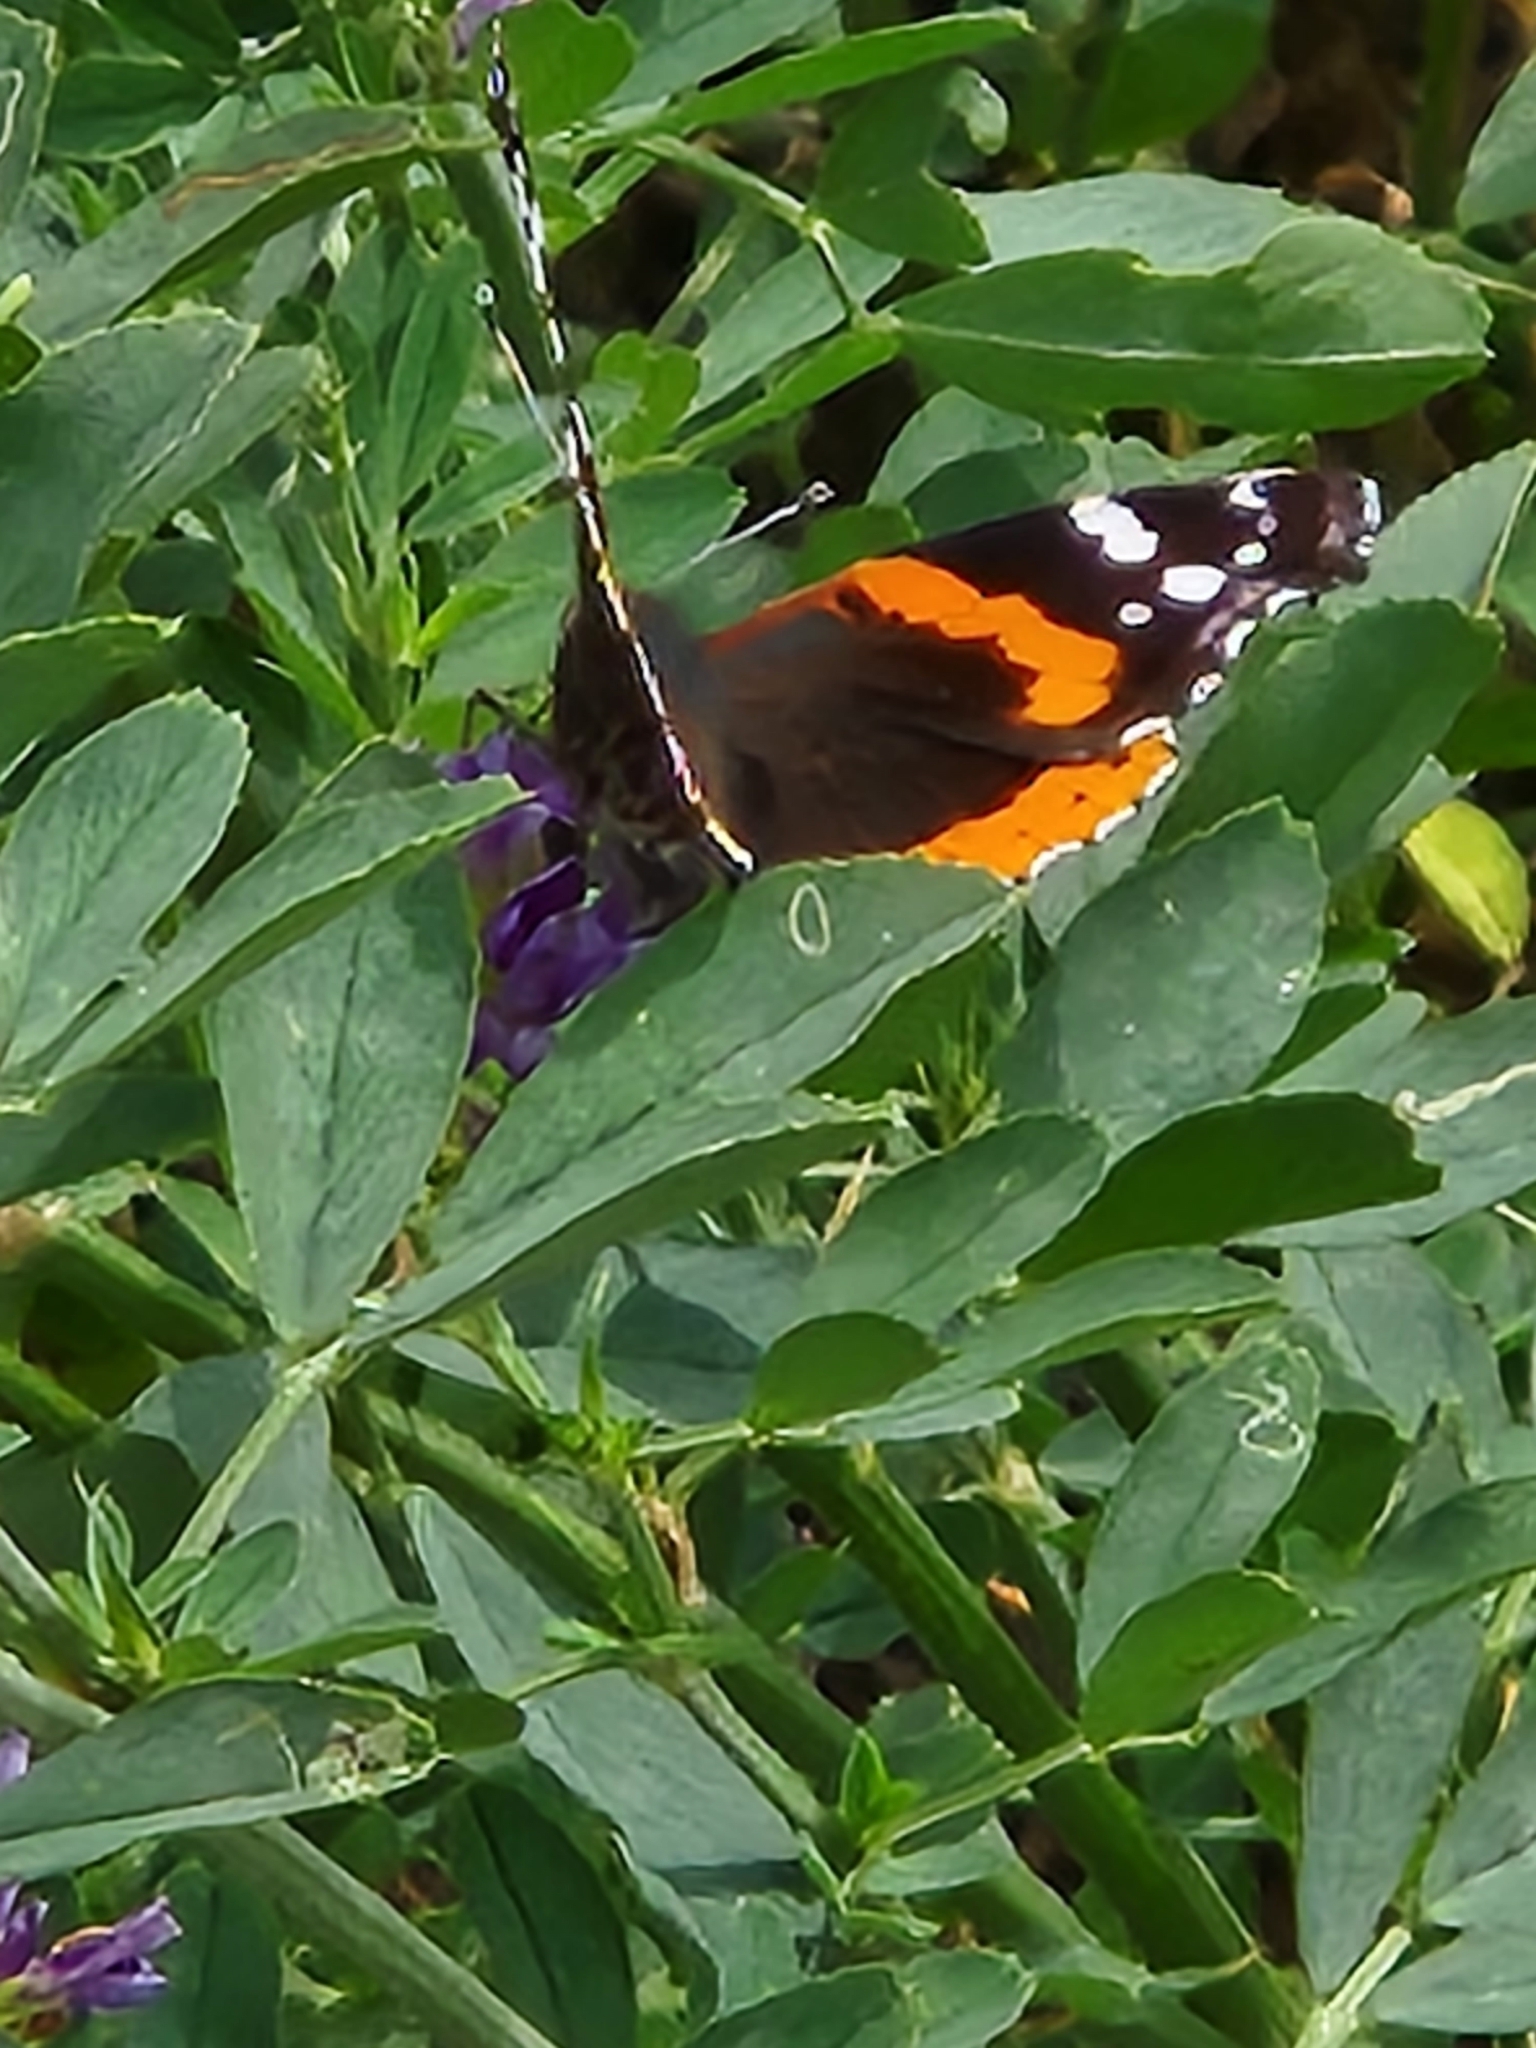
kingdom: Animalia
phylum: Arthropoda
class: Insecta
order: Lepidoptera
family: Nymphalidae
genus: Vanessa
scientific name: Vanessa atalanta
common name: Red admiral
